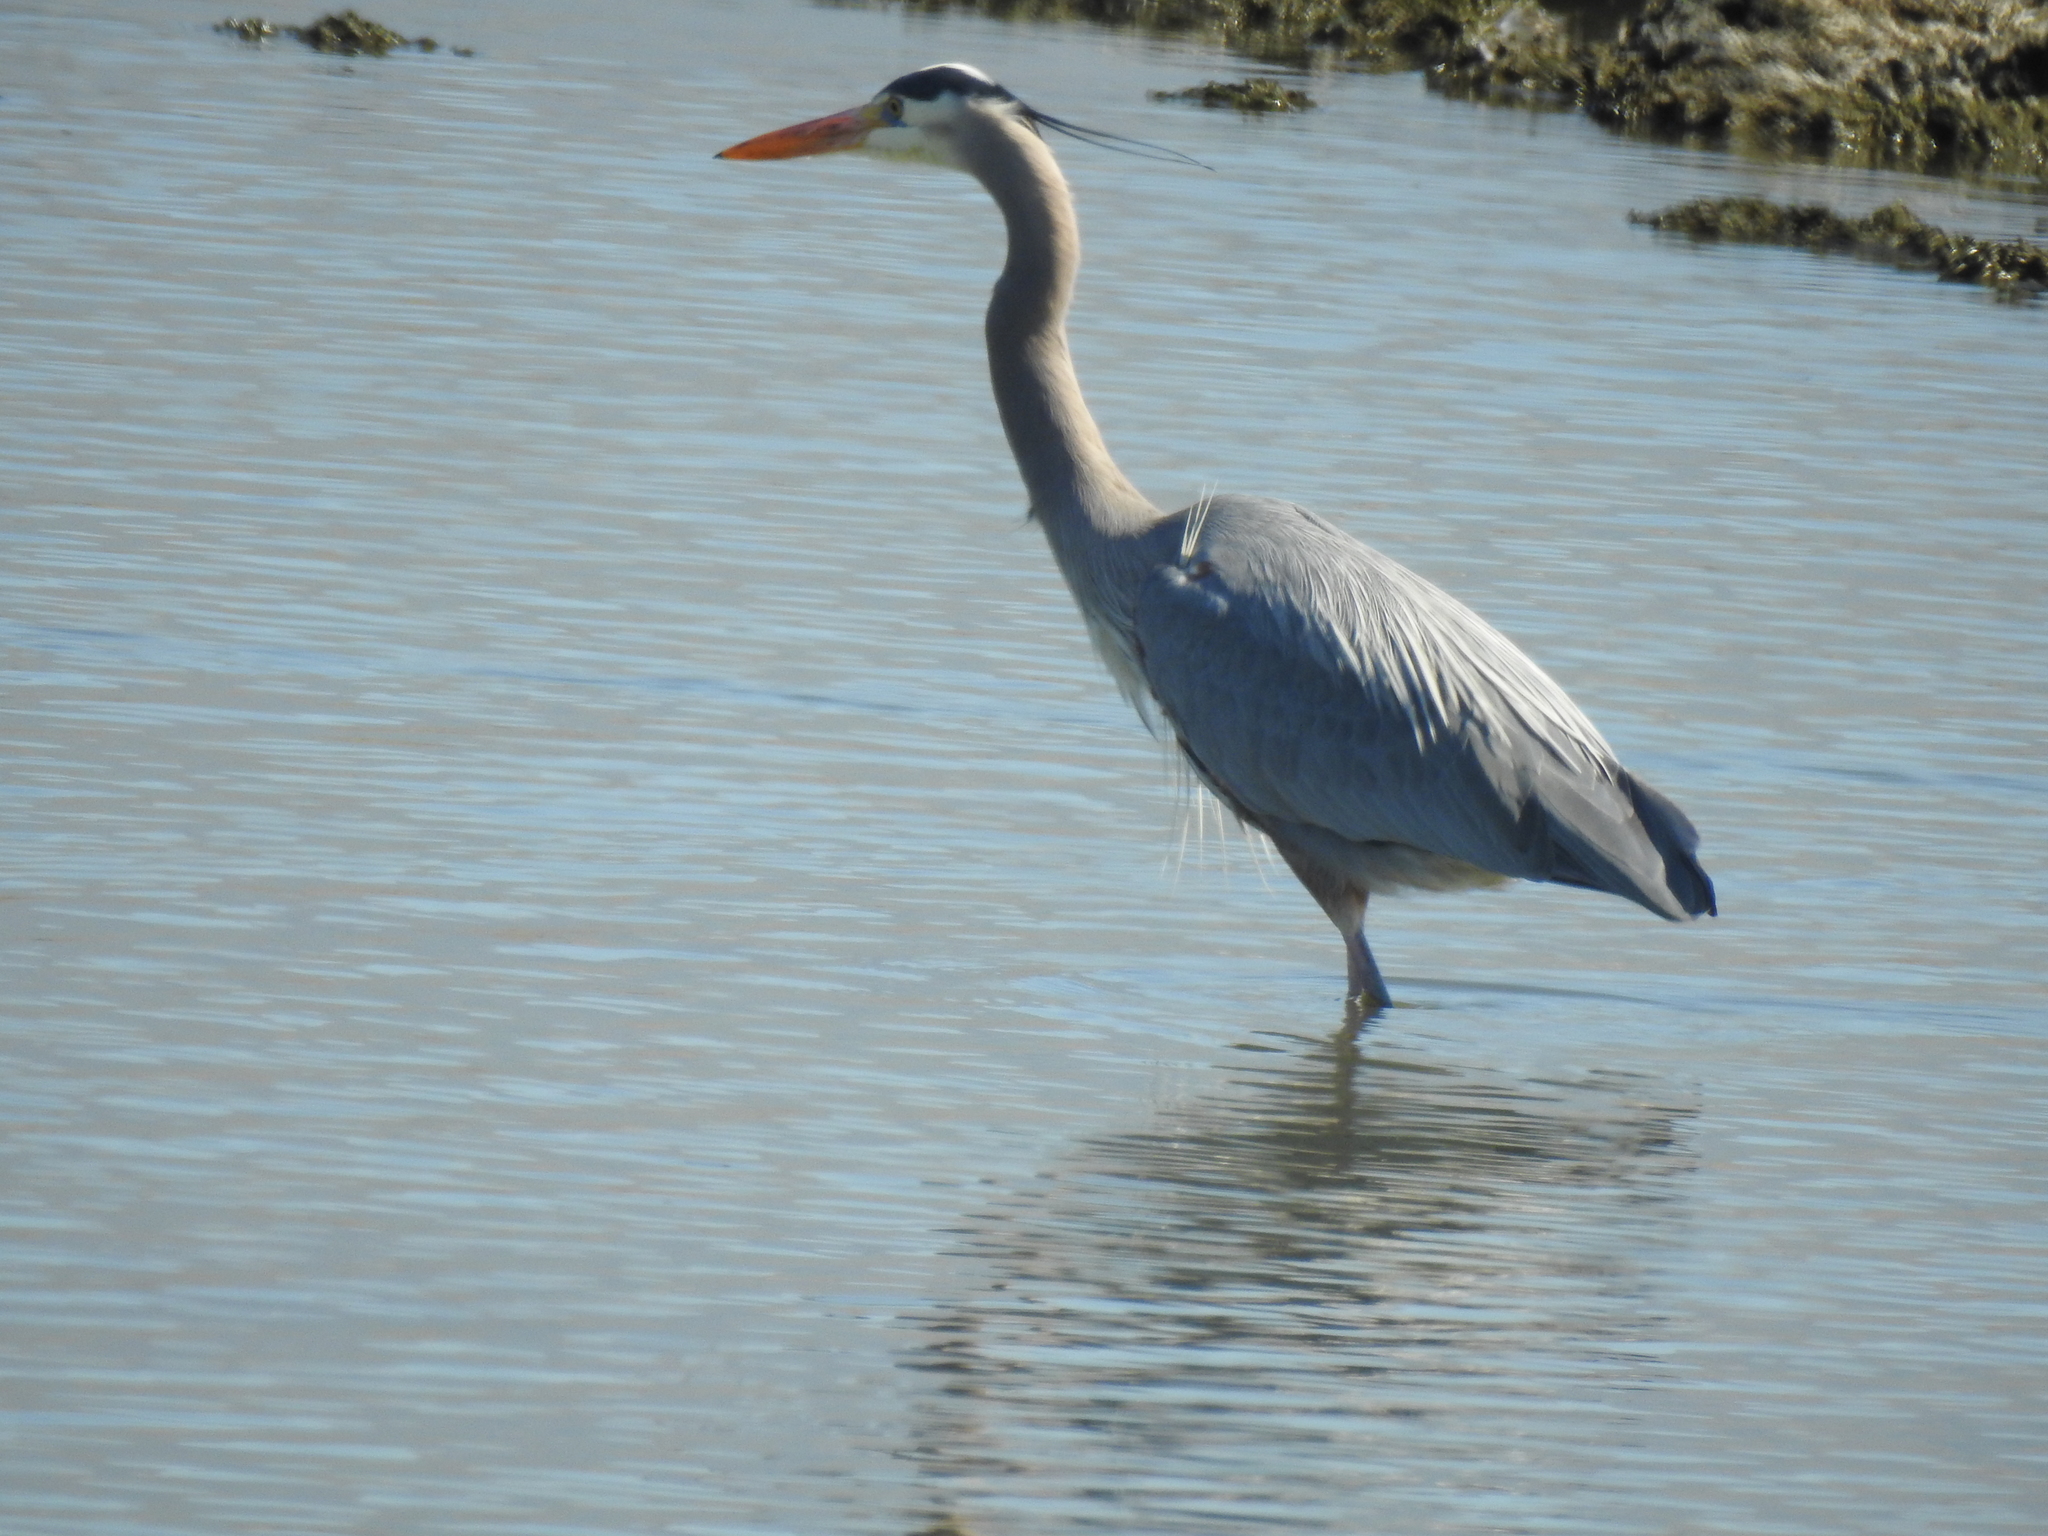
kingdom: Animalia
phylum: Chordata
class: Aves
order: Pelecaniformes
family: Ardeidae
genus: Ardea
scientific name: Ardea herodias
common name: Great blue heron
